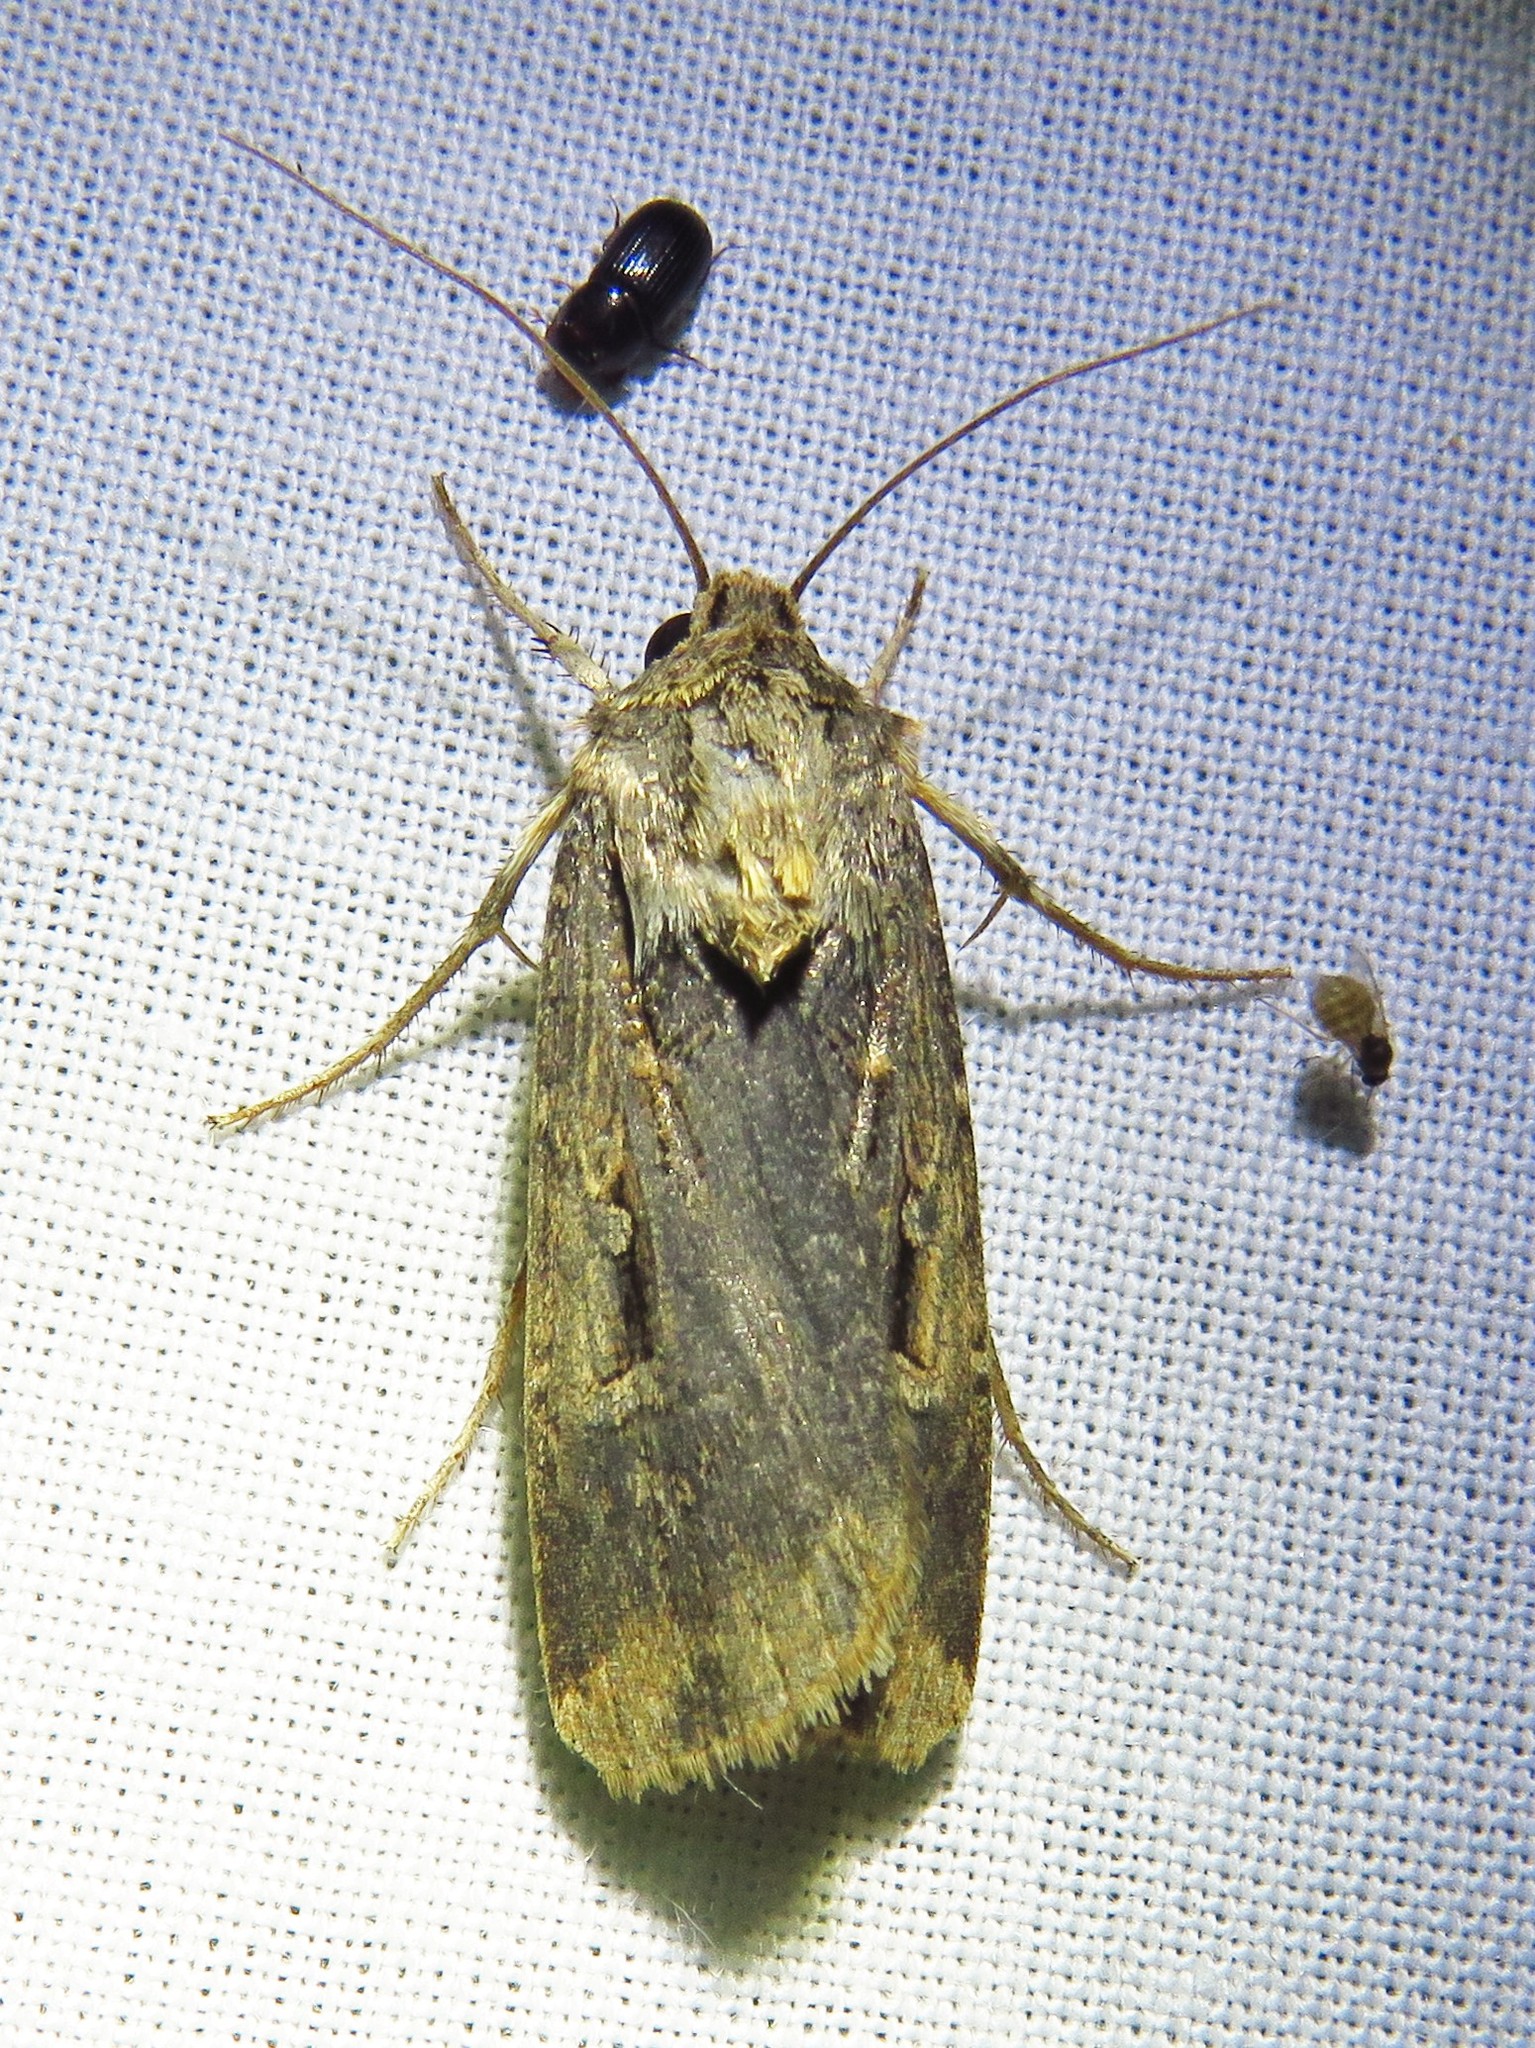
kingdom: Animalia
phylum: Arthropoda
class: Insecta
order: Lepidoptera
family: Noctuidae
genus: Feltia
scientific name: Feltia subterranea
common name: Granulate cutworm
